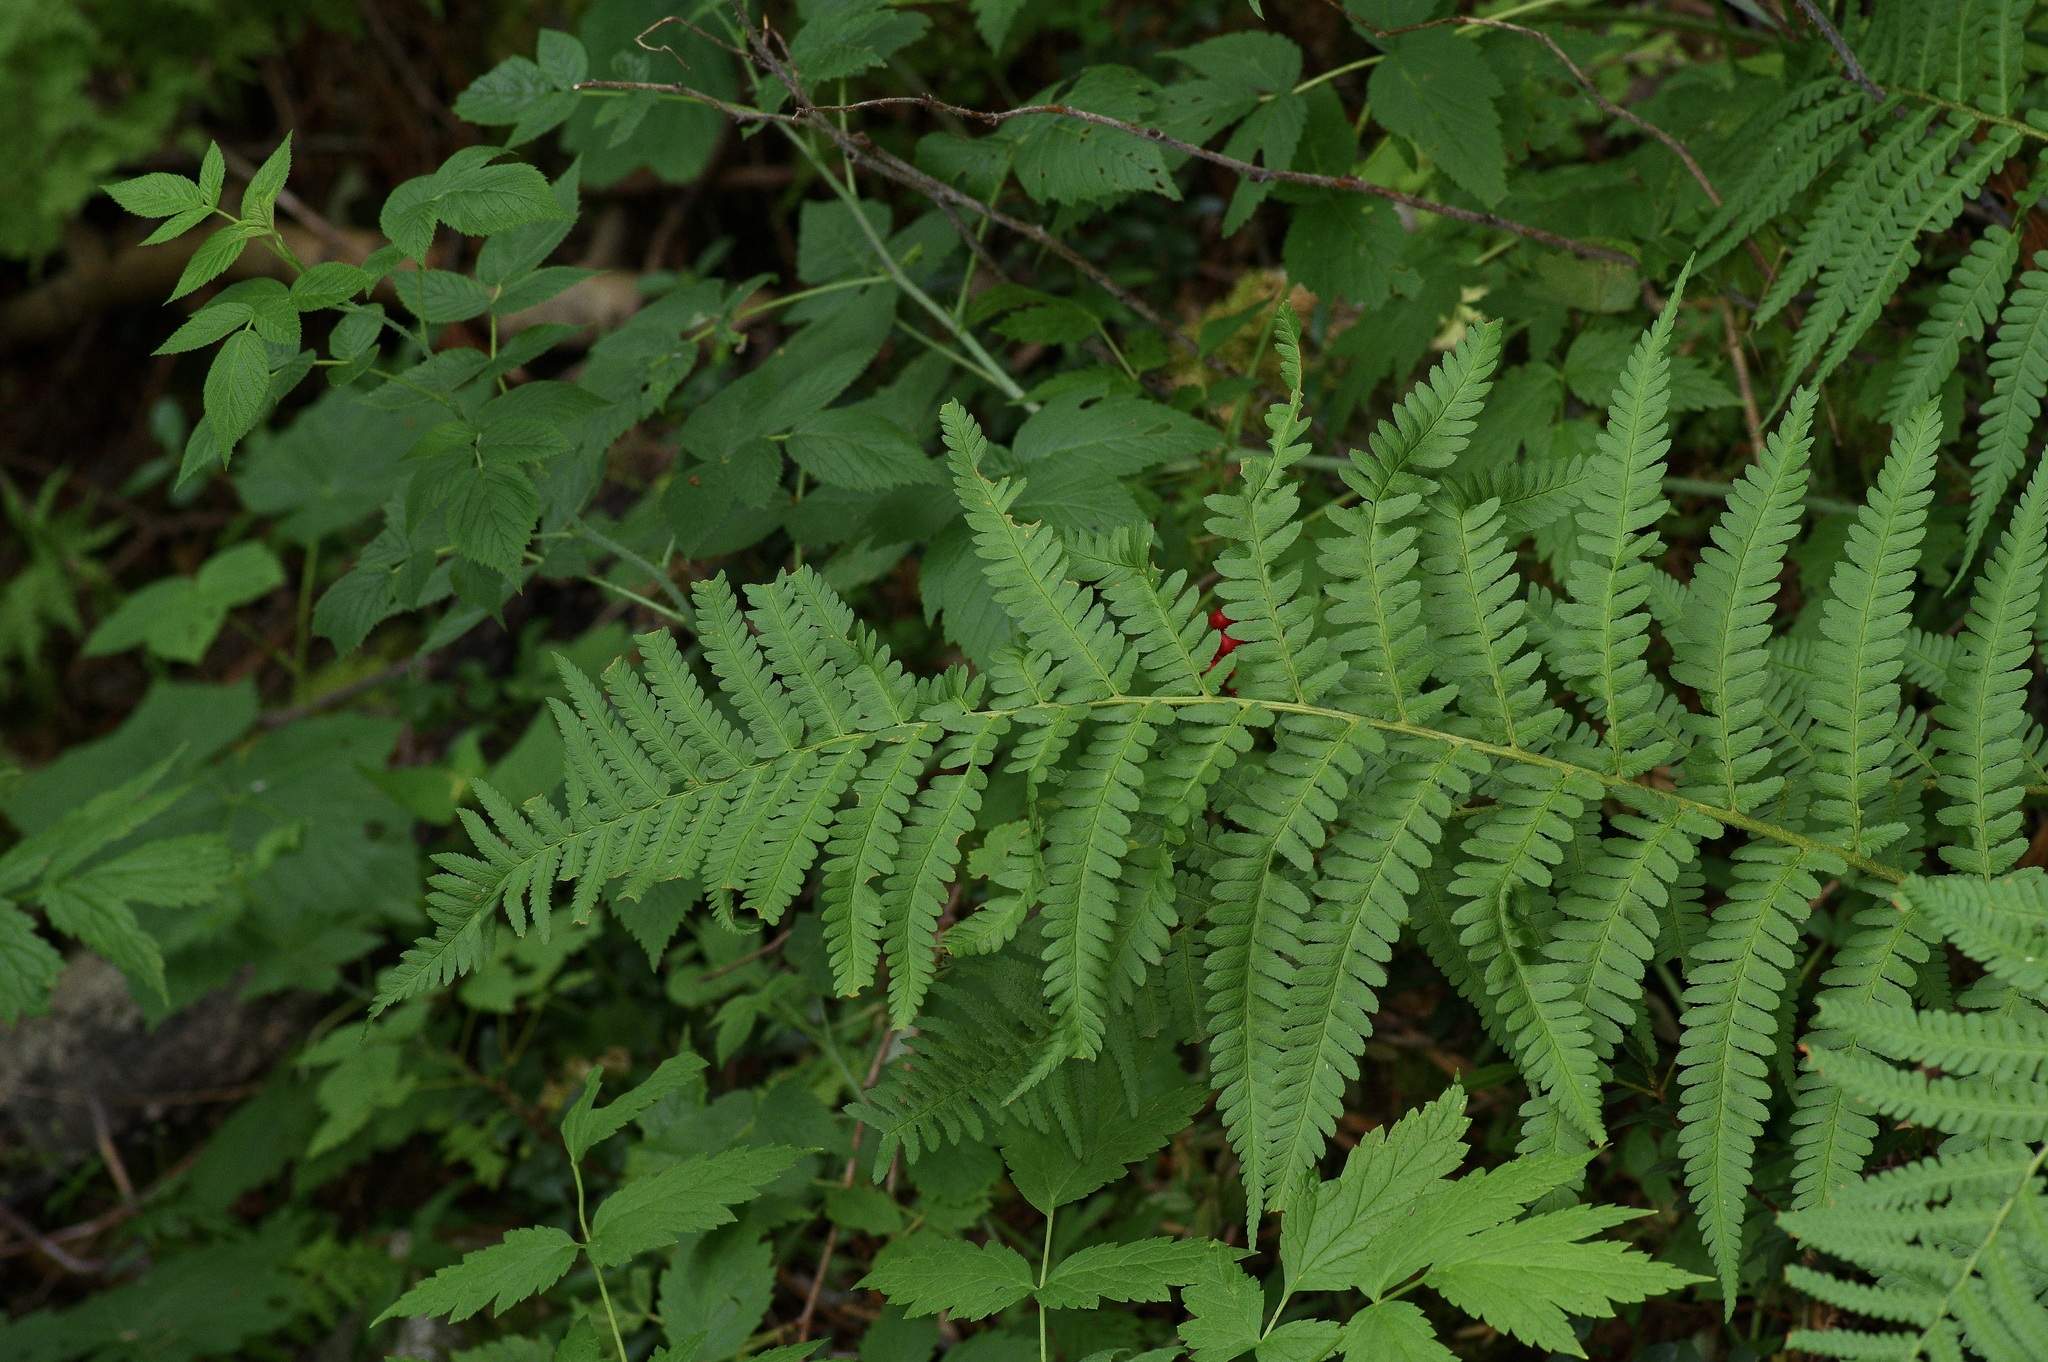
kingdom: Plantae
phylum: Tracheophyta
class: Polypodiopsida
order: Polypodiales
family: Dryopteridaceae
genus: Dryopteris
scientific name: Dryopteris filix-mas
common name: Male fern
